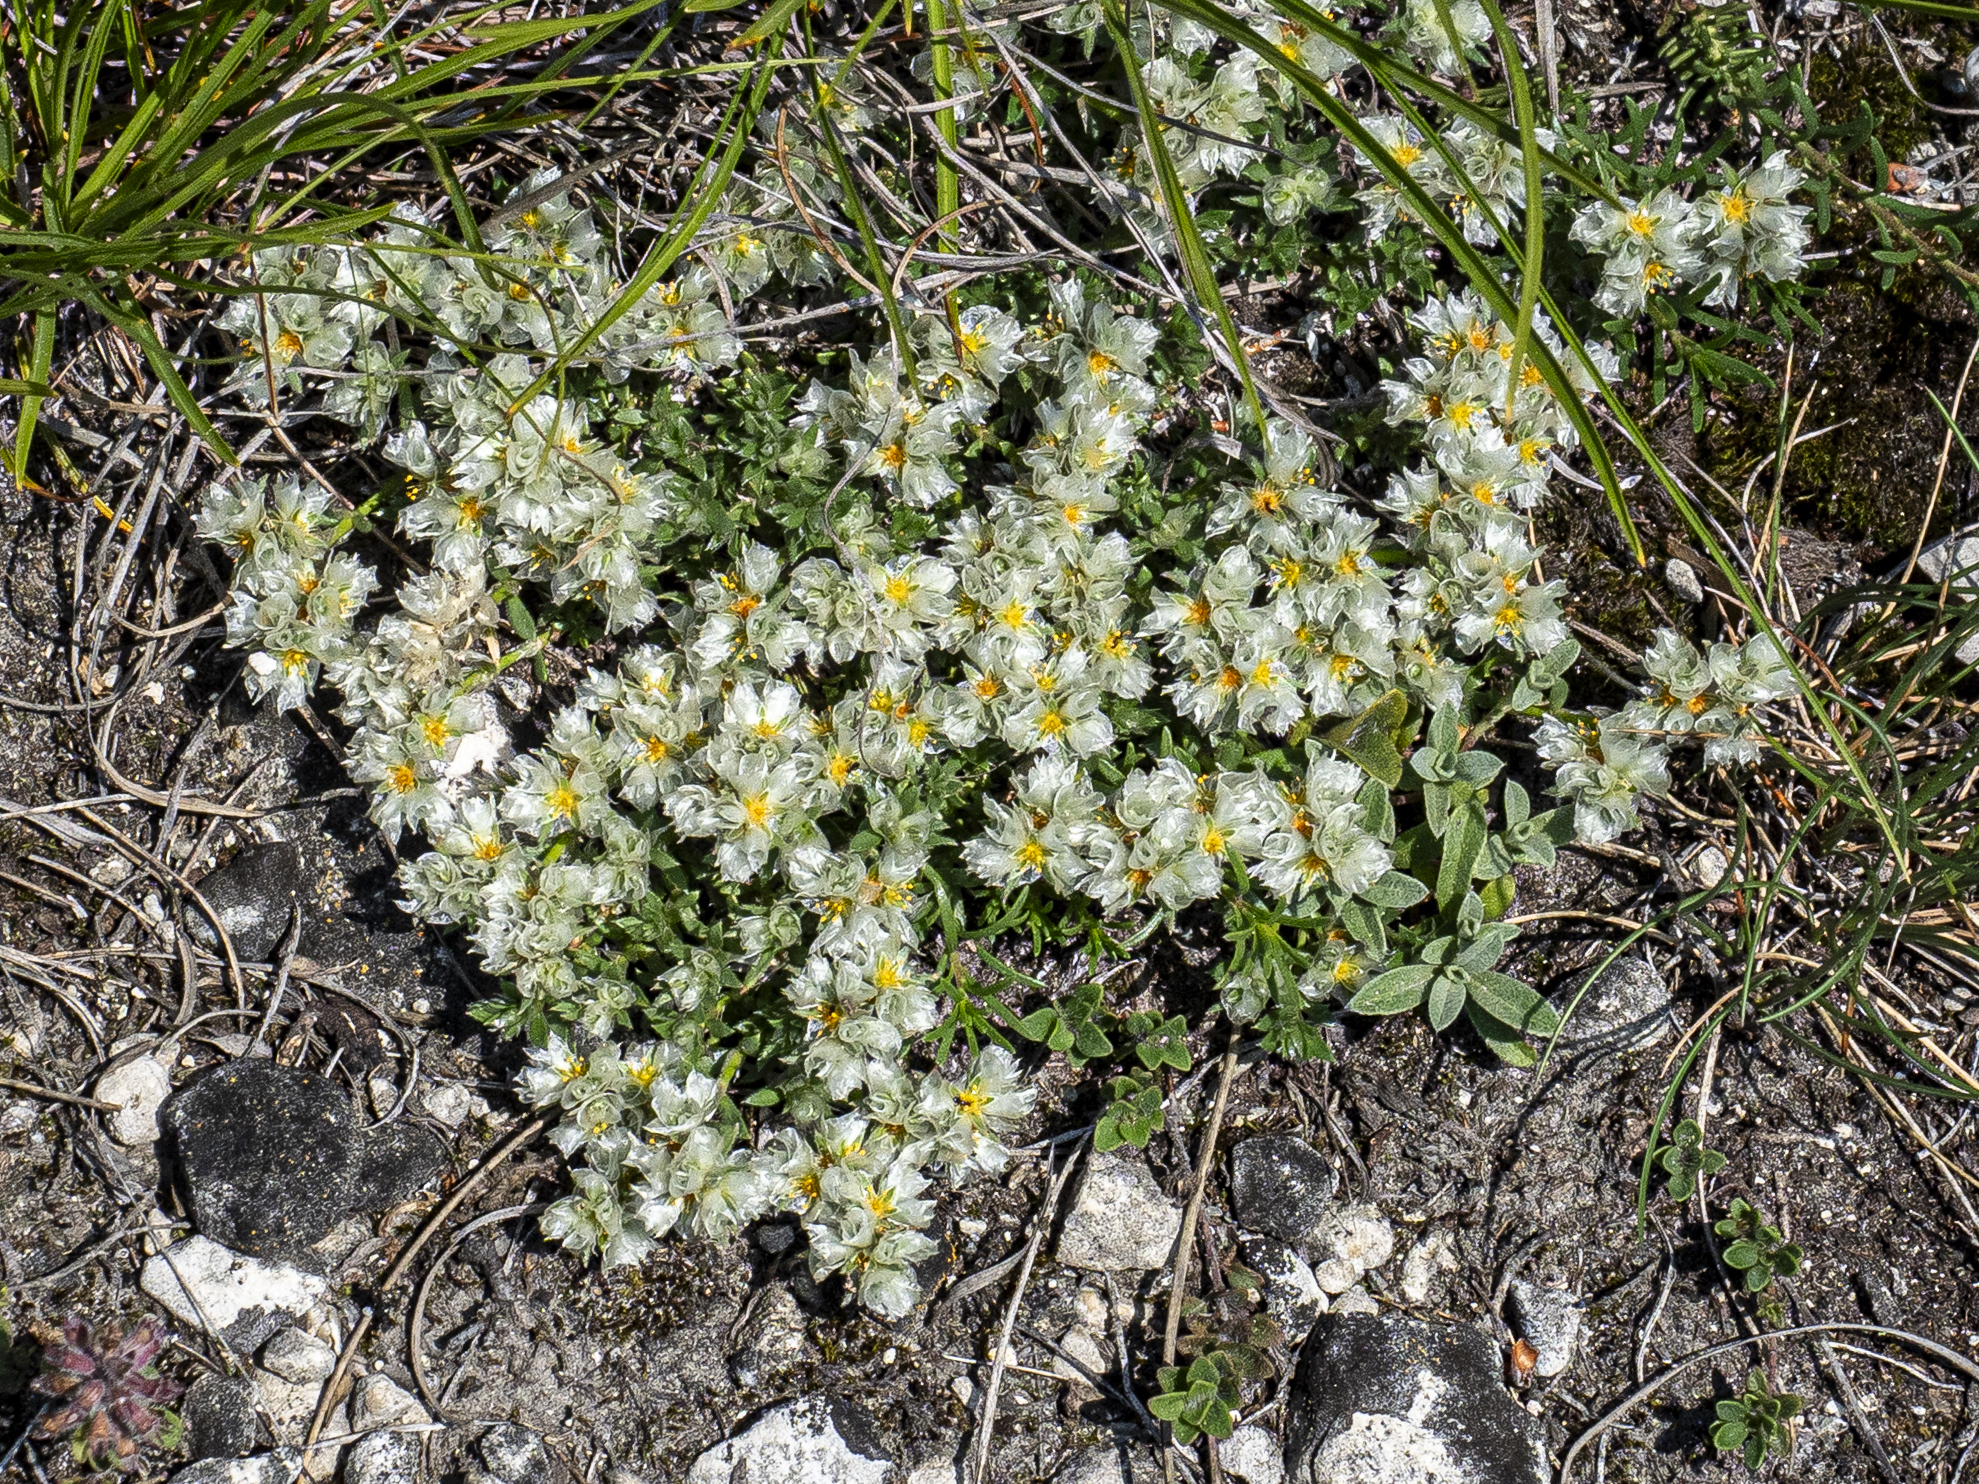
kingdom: Plantae
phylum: Tracheophyta
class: Magnoliopsida
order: Caryophyllales
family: Caryophyllaceae
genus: Paronychia
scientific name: Paronychia cephalotes
